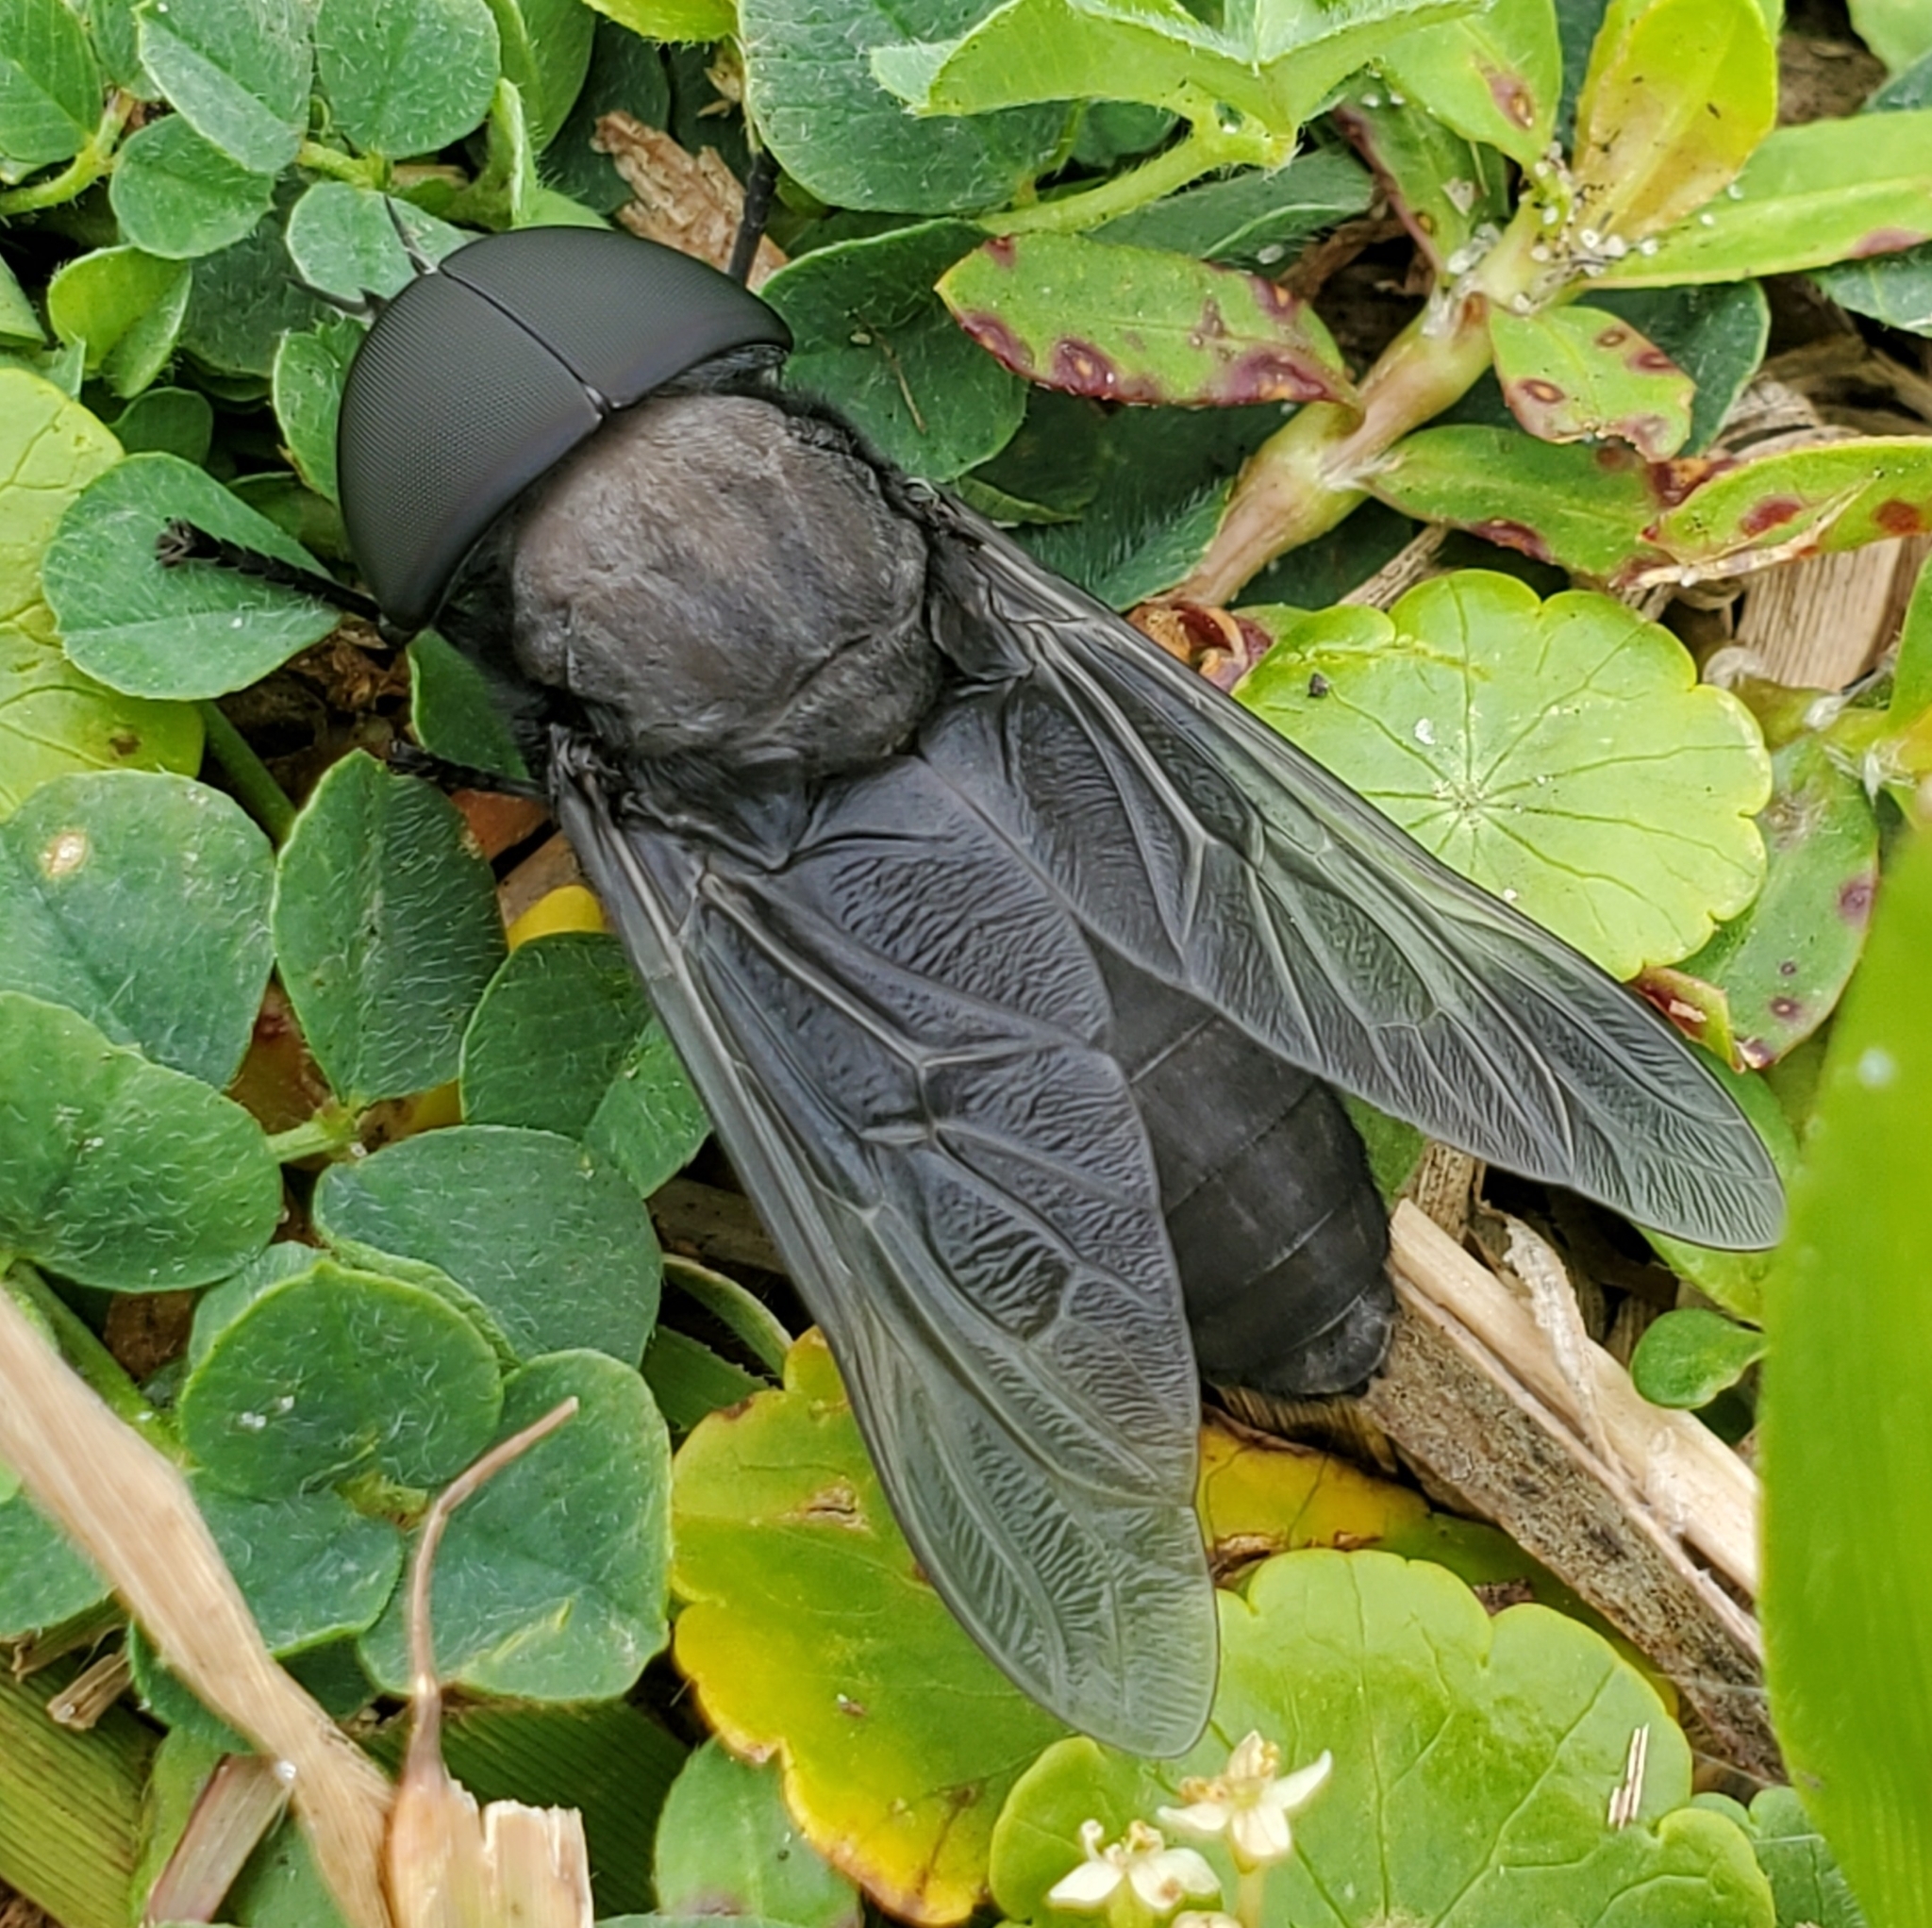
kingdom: Animalia
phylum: Arthropoda
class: Insecta
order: Diptera
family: Tabanidae
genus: Tabanus
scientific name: Tabanus atratus
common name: Black horse fly
